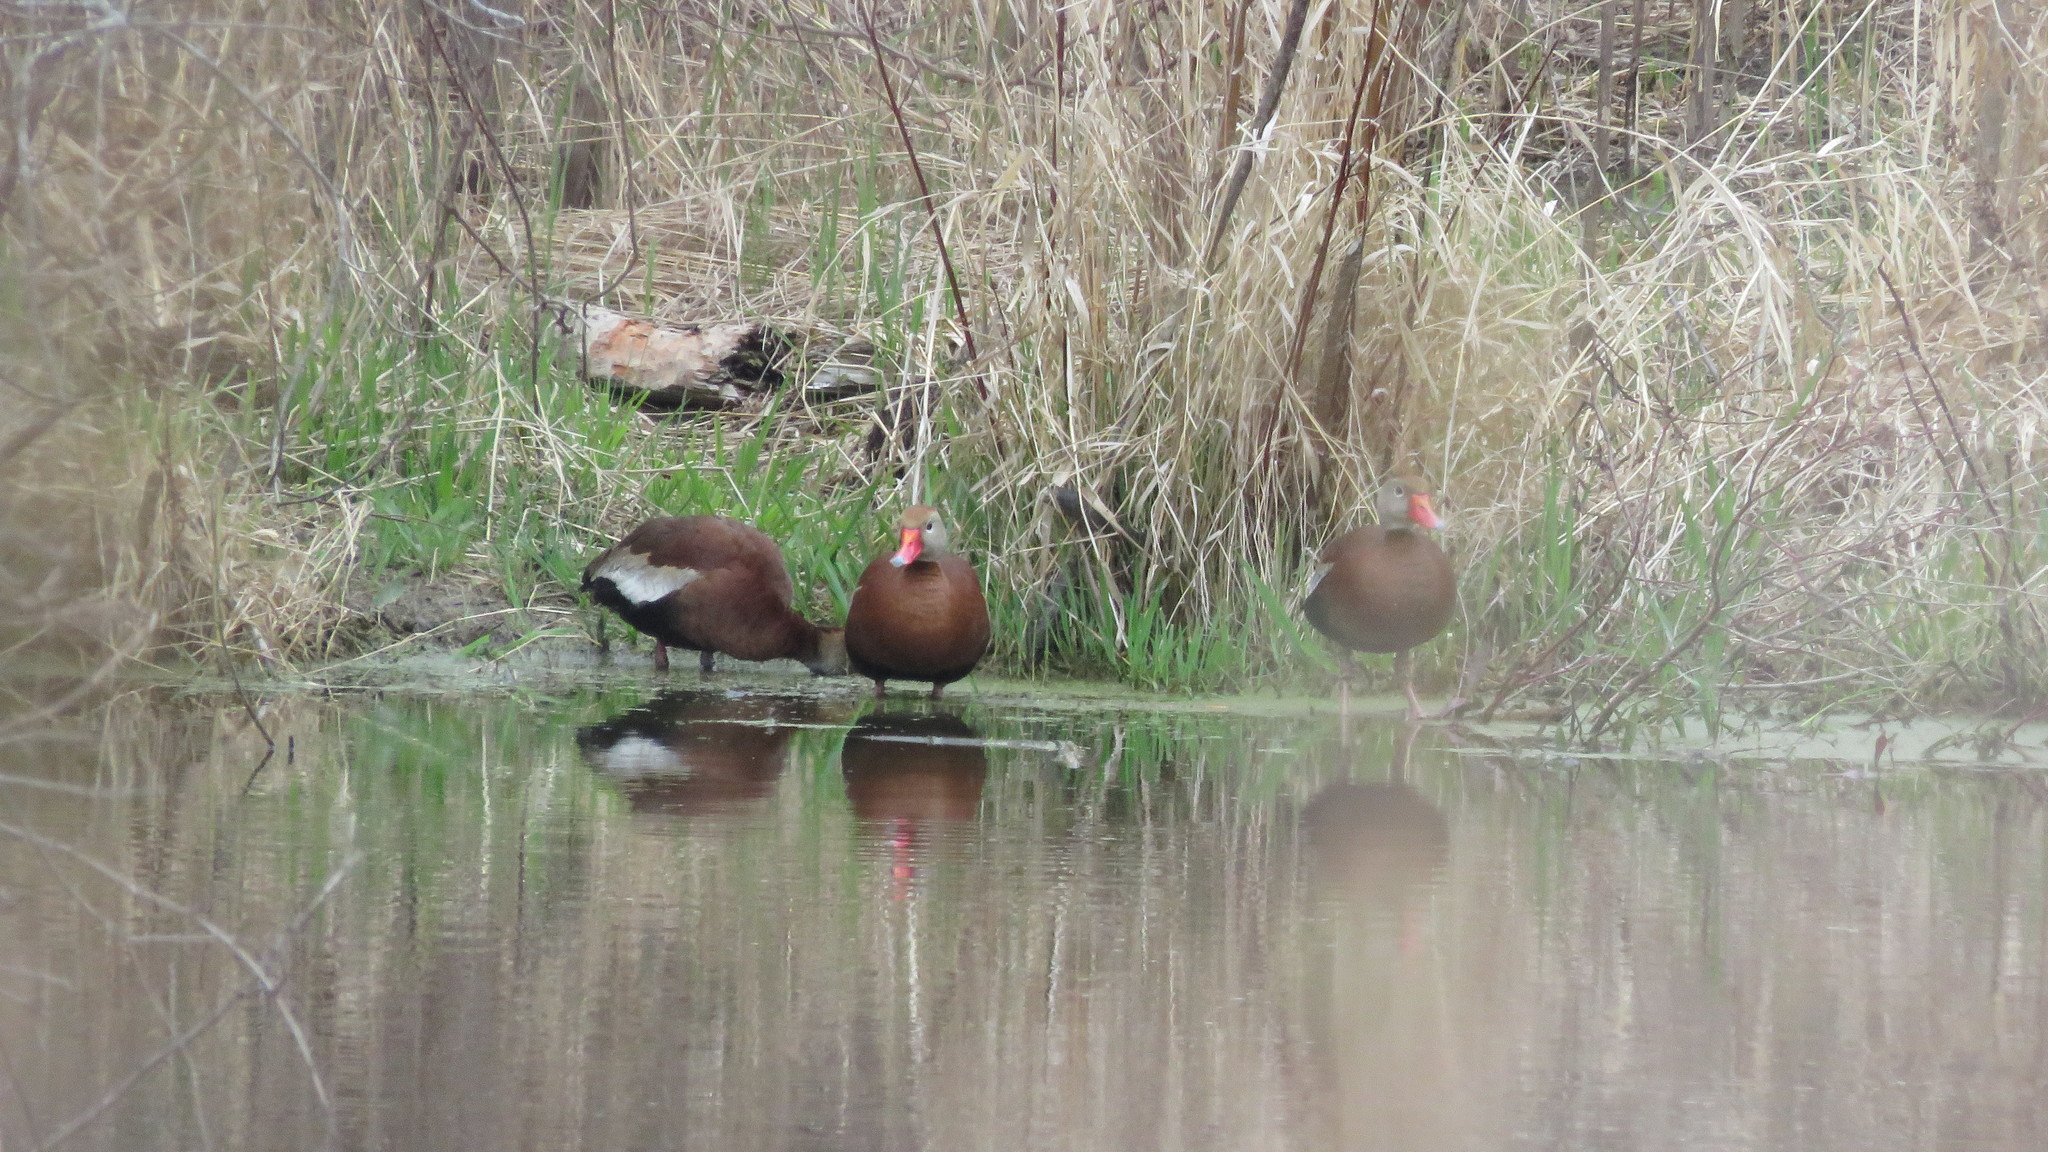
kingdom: Animalia
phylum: Chordata
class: Aves
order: Anseriformes
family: Anatidae
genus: Dendrocygna
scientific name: Dendrocygna autumnalis
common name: Black-bellied whistling duck
